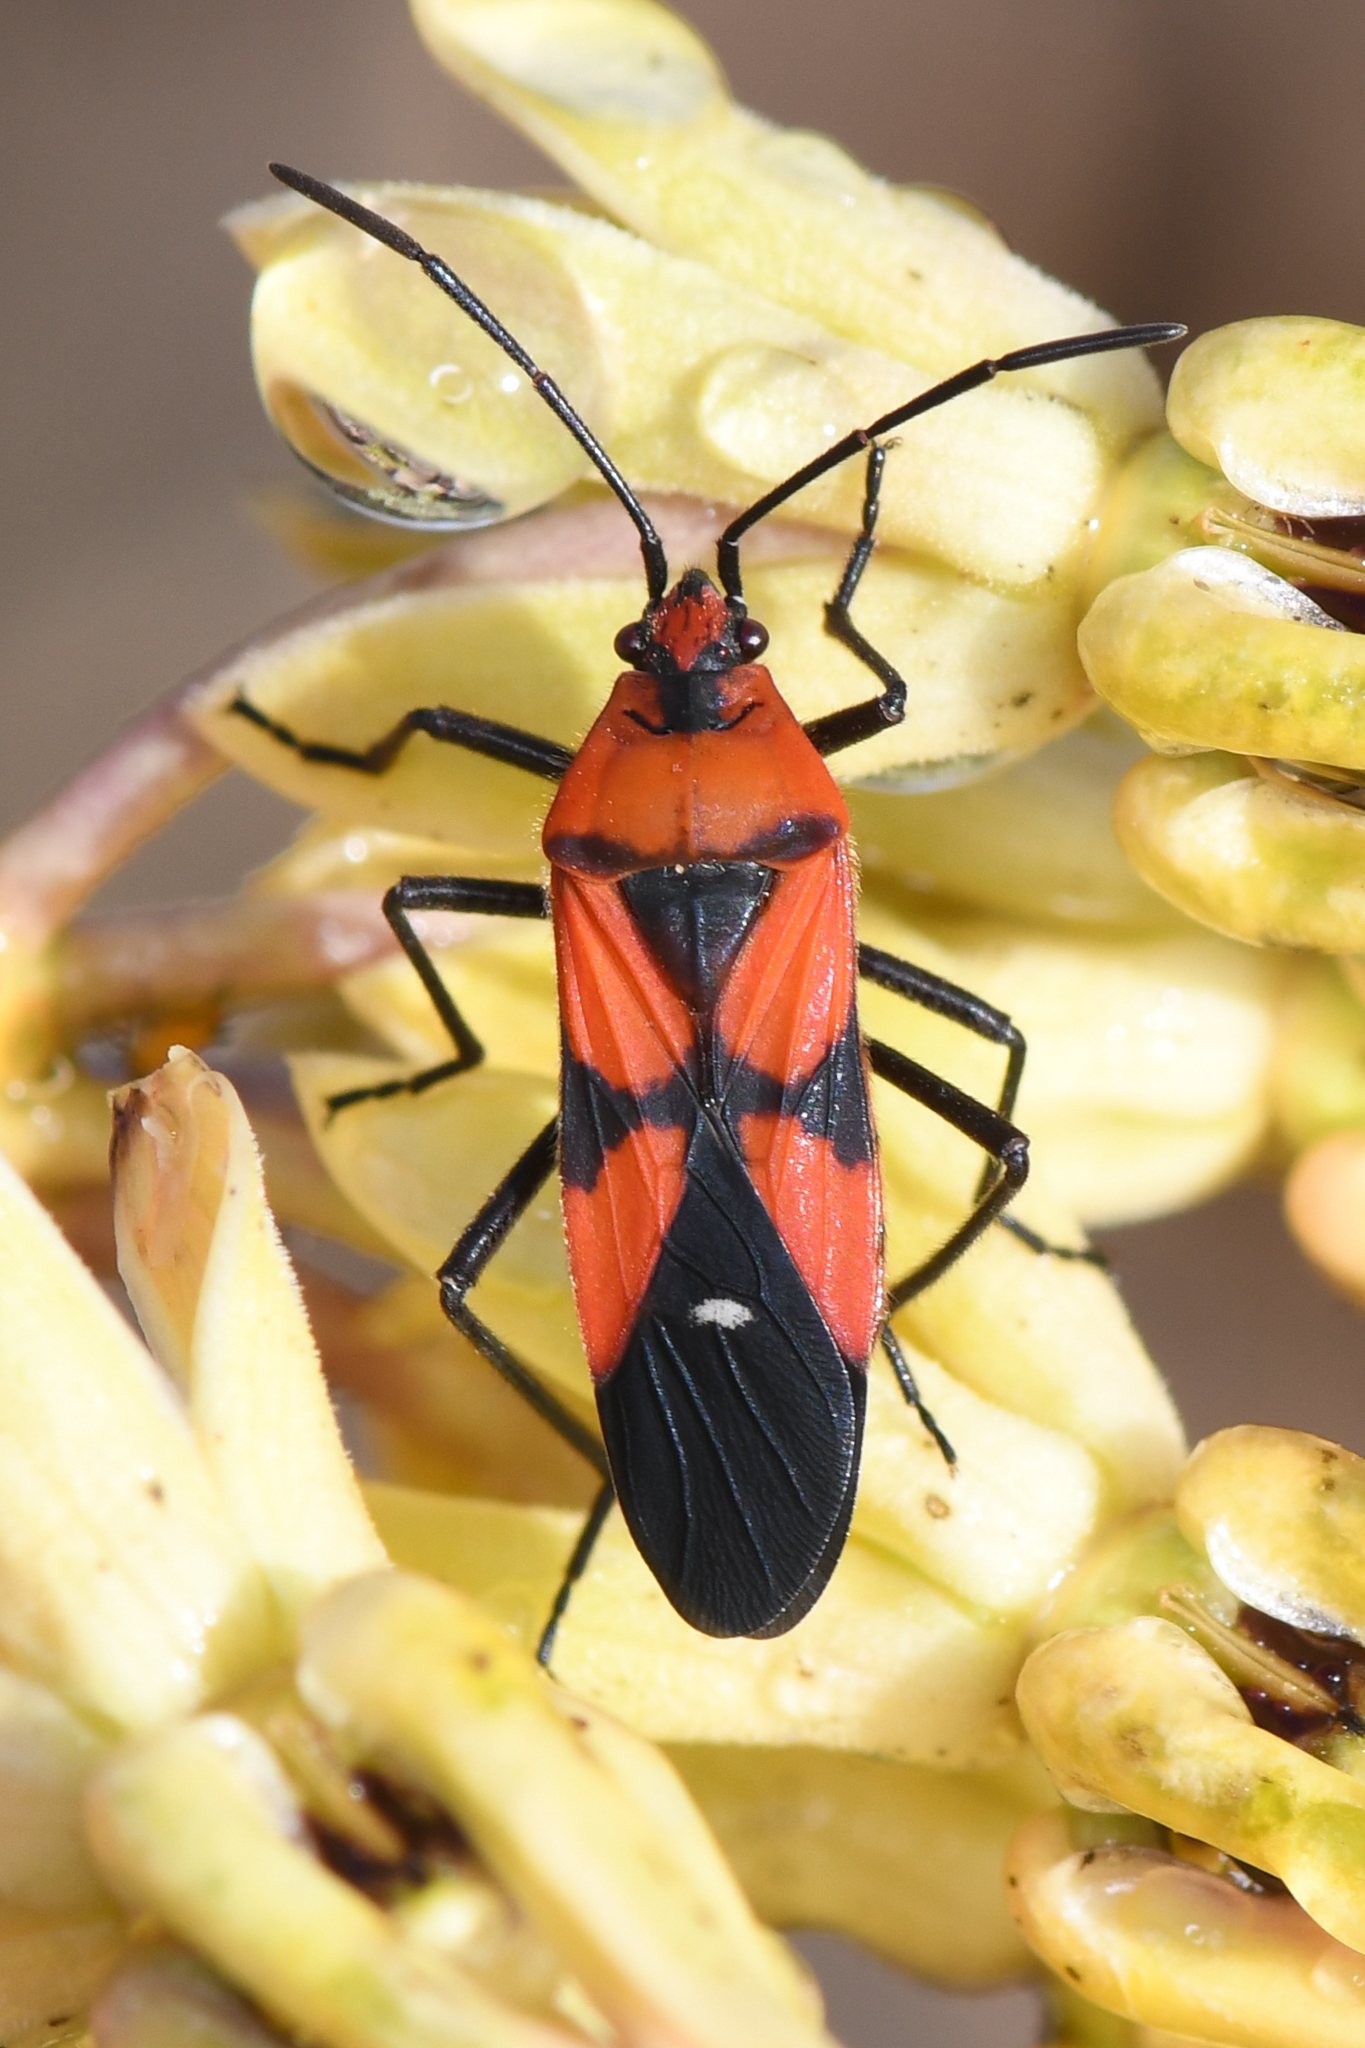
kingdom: Animalia
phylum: Arthropoda
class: Insecta
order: Hemiptera
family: Lygaeidae
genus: Oncopeltus
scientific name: Oncopeltus sanguinolentus
